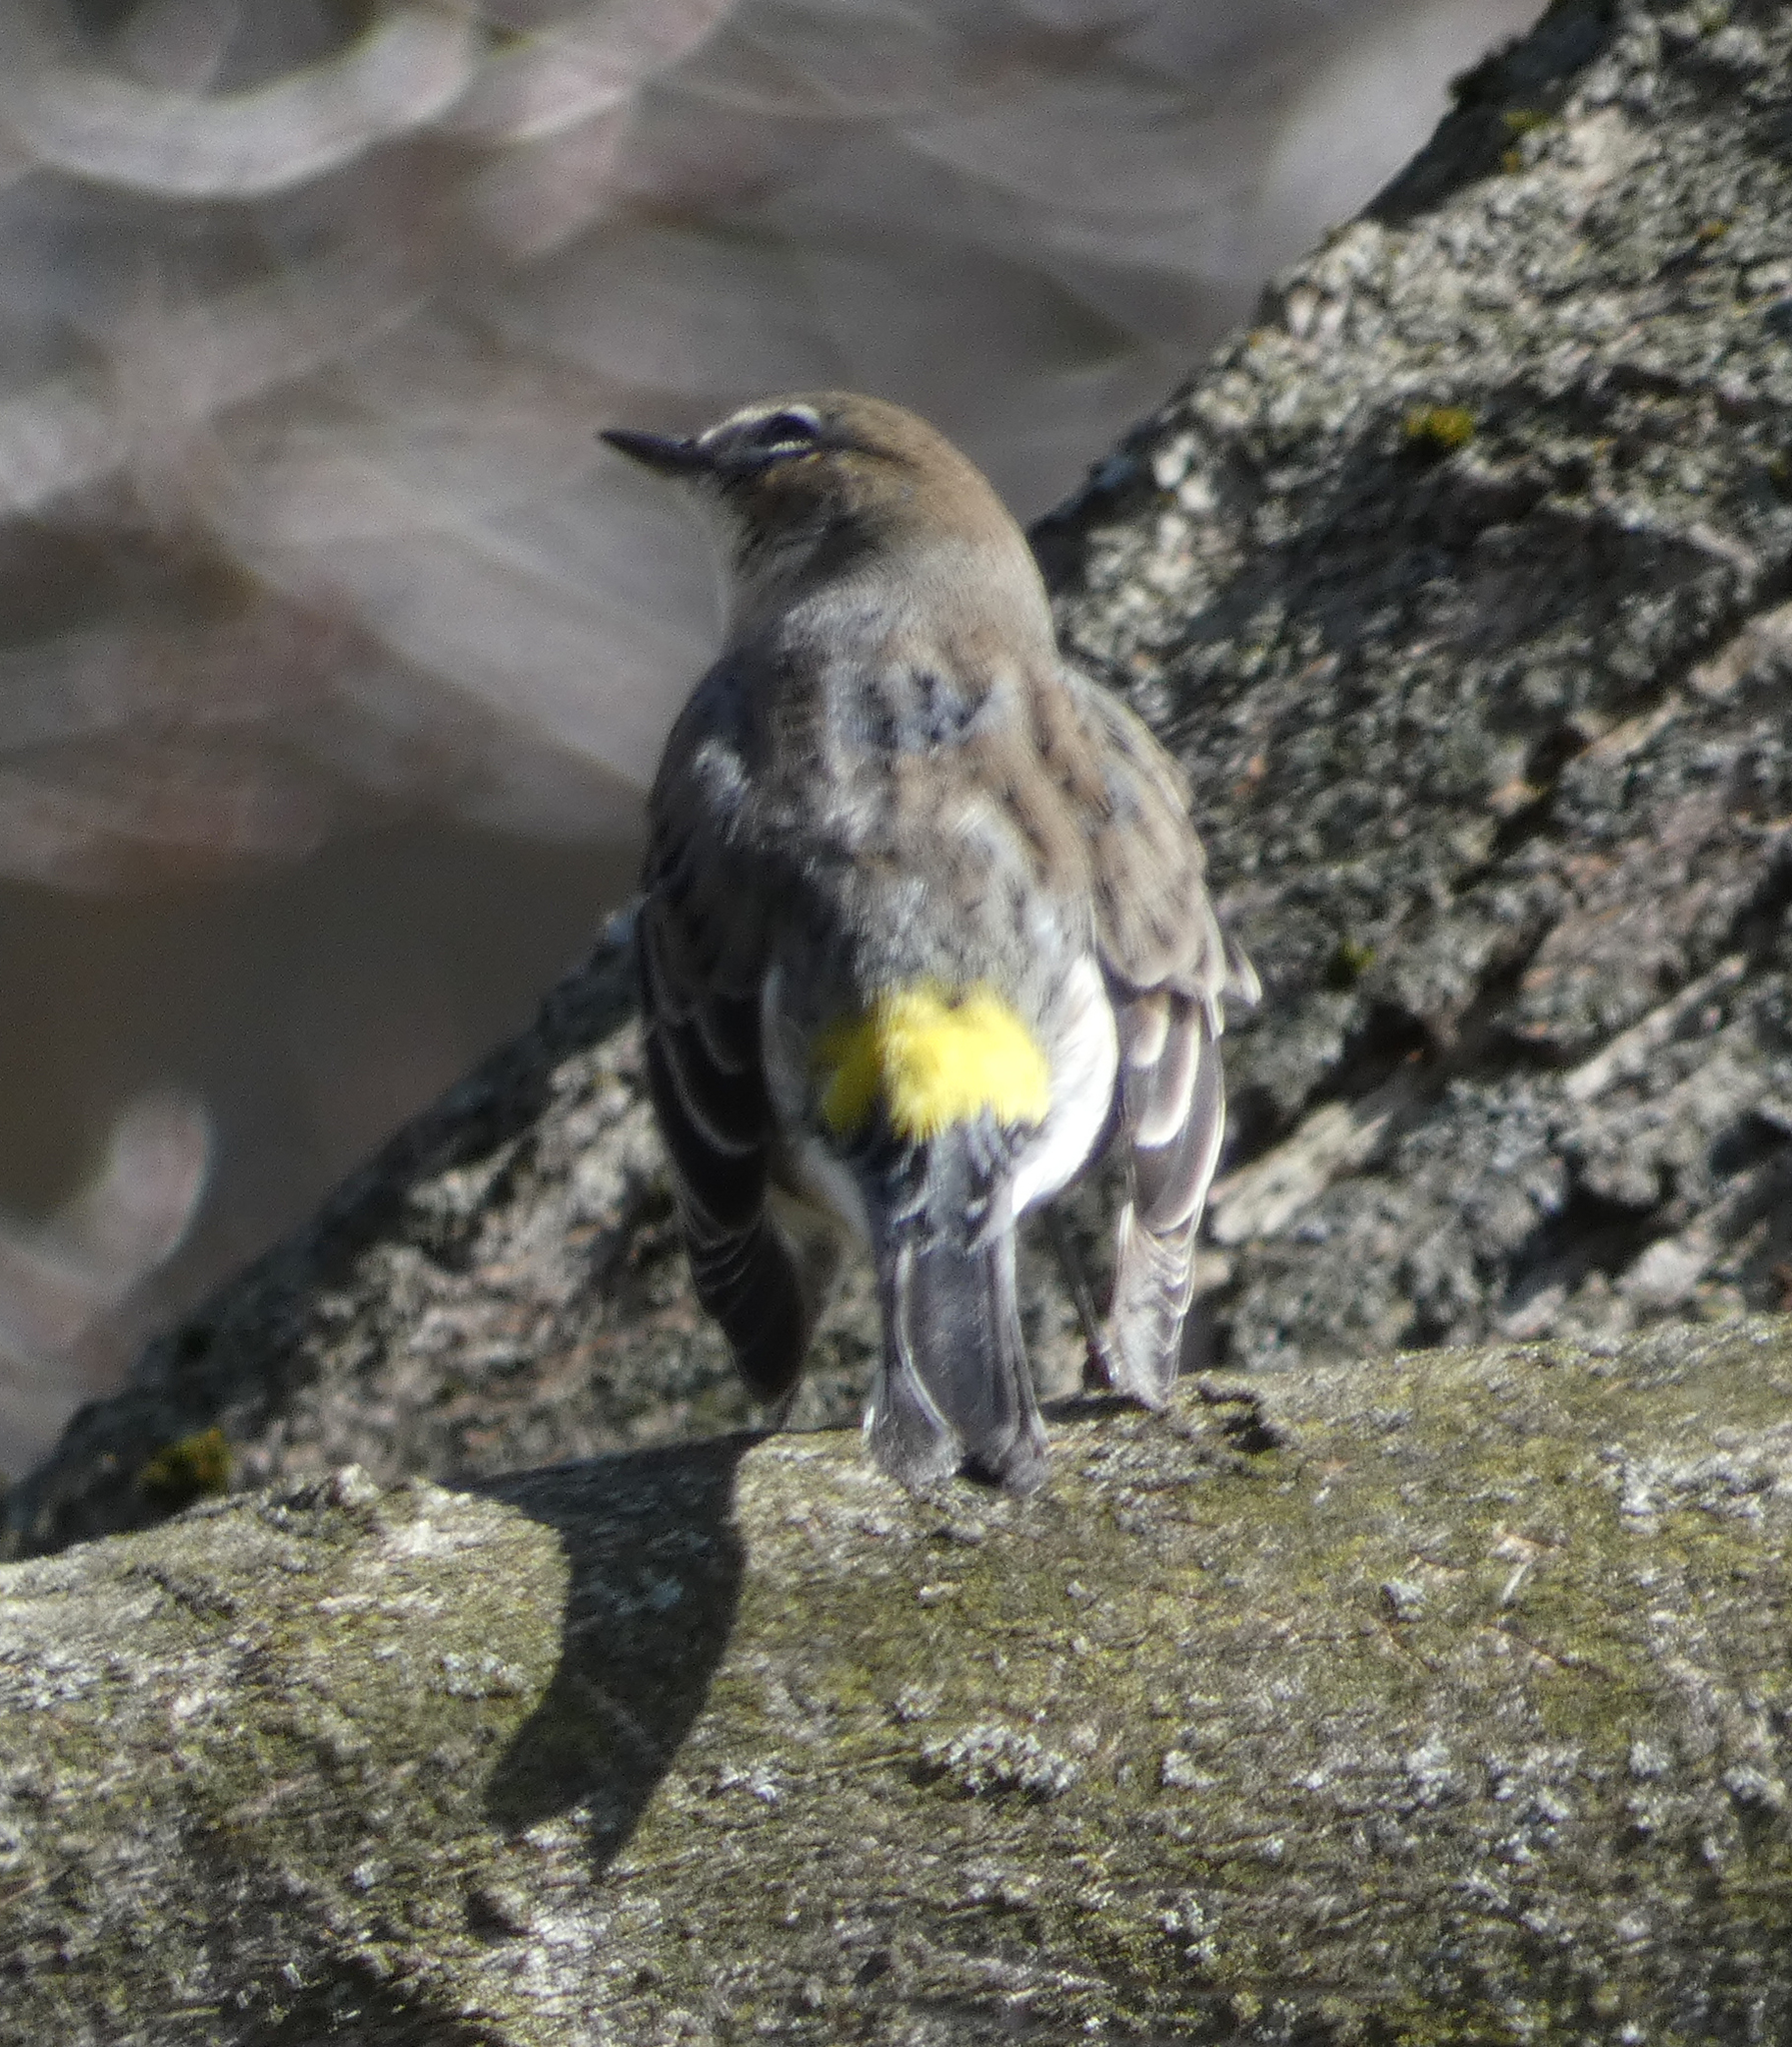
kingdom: Animalia
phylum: Chordata
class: Aves
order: Passeriformes
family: Parulidae
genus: Setophaga
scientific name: Setophaga coronata
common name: Myrtle warbler
